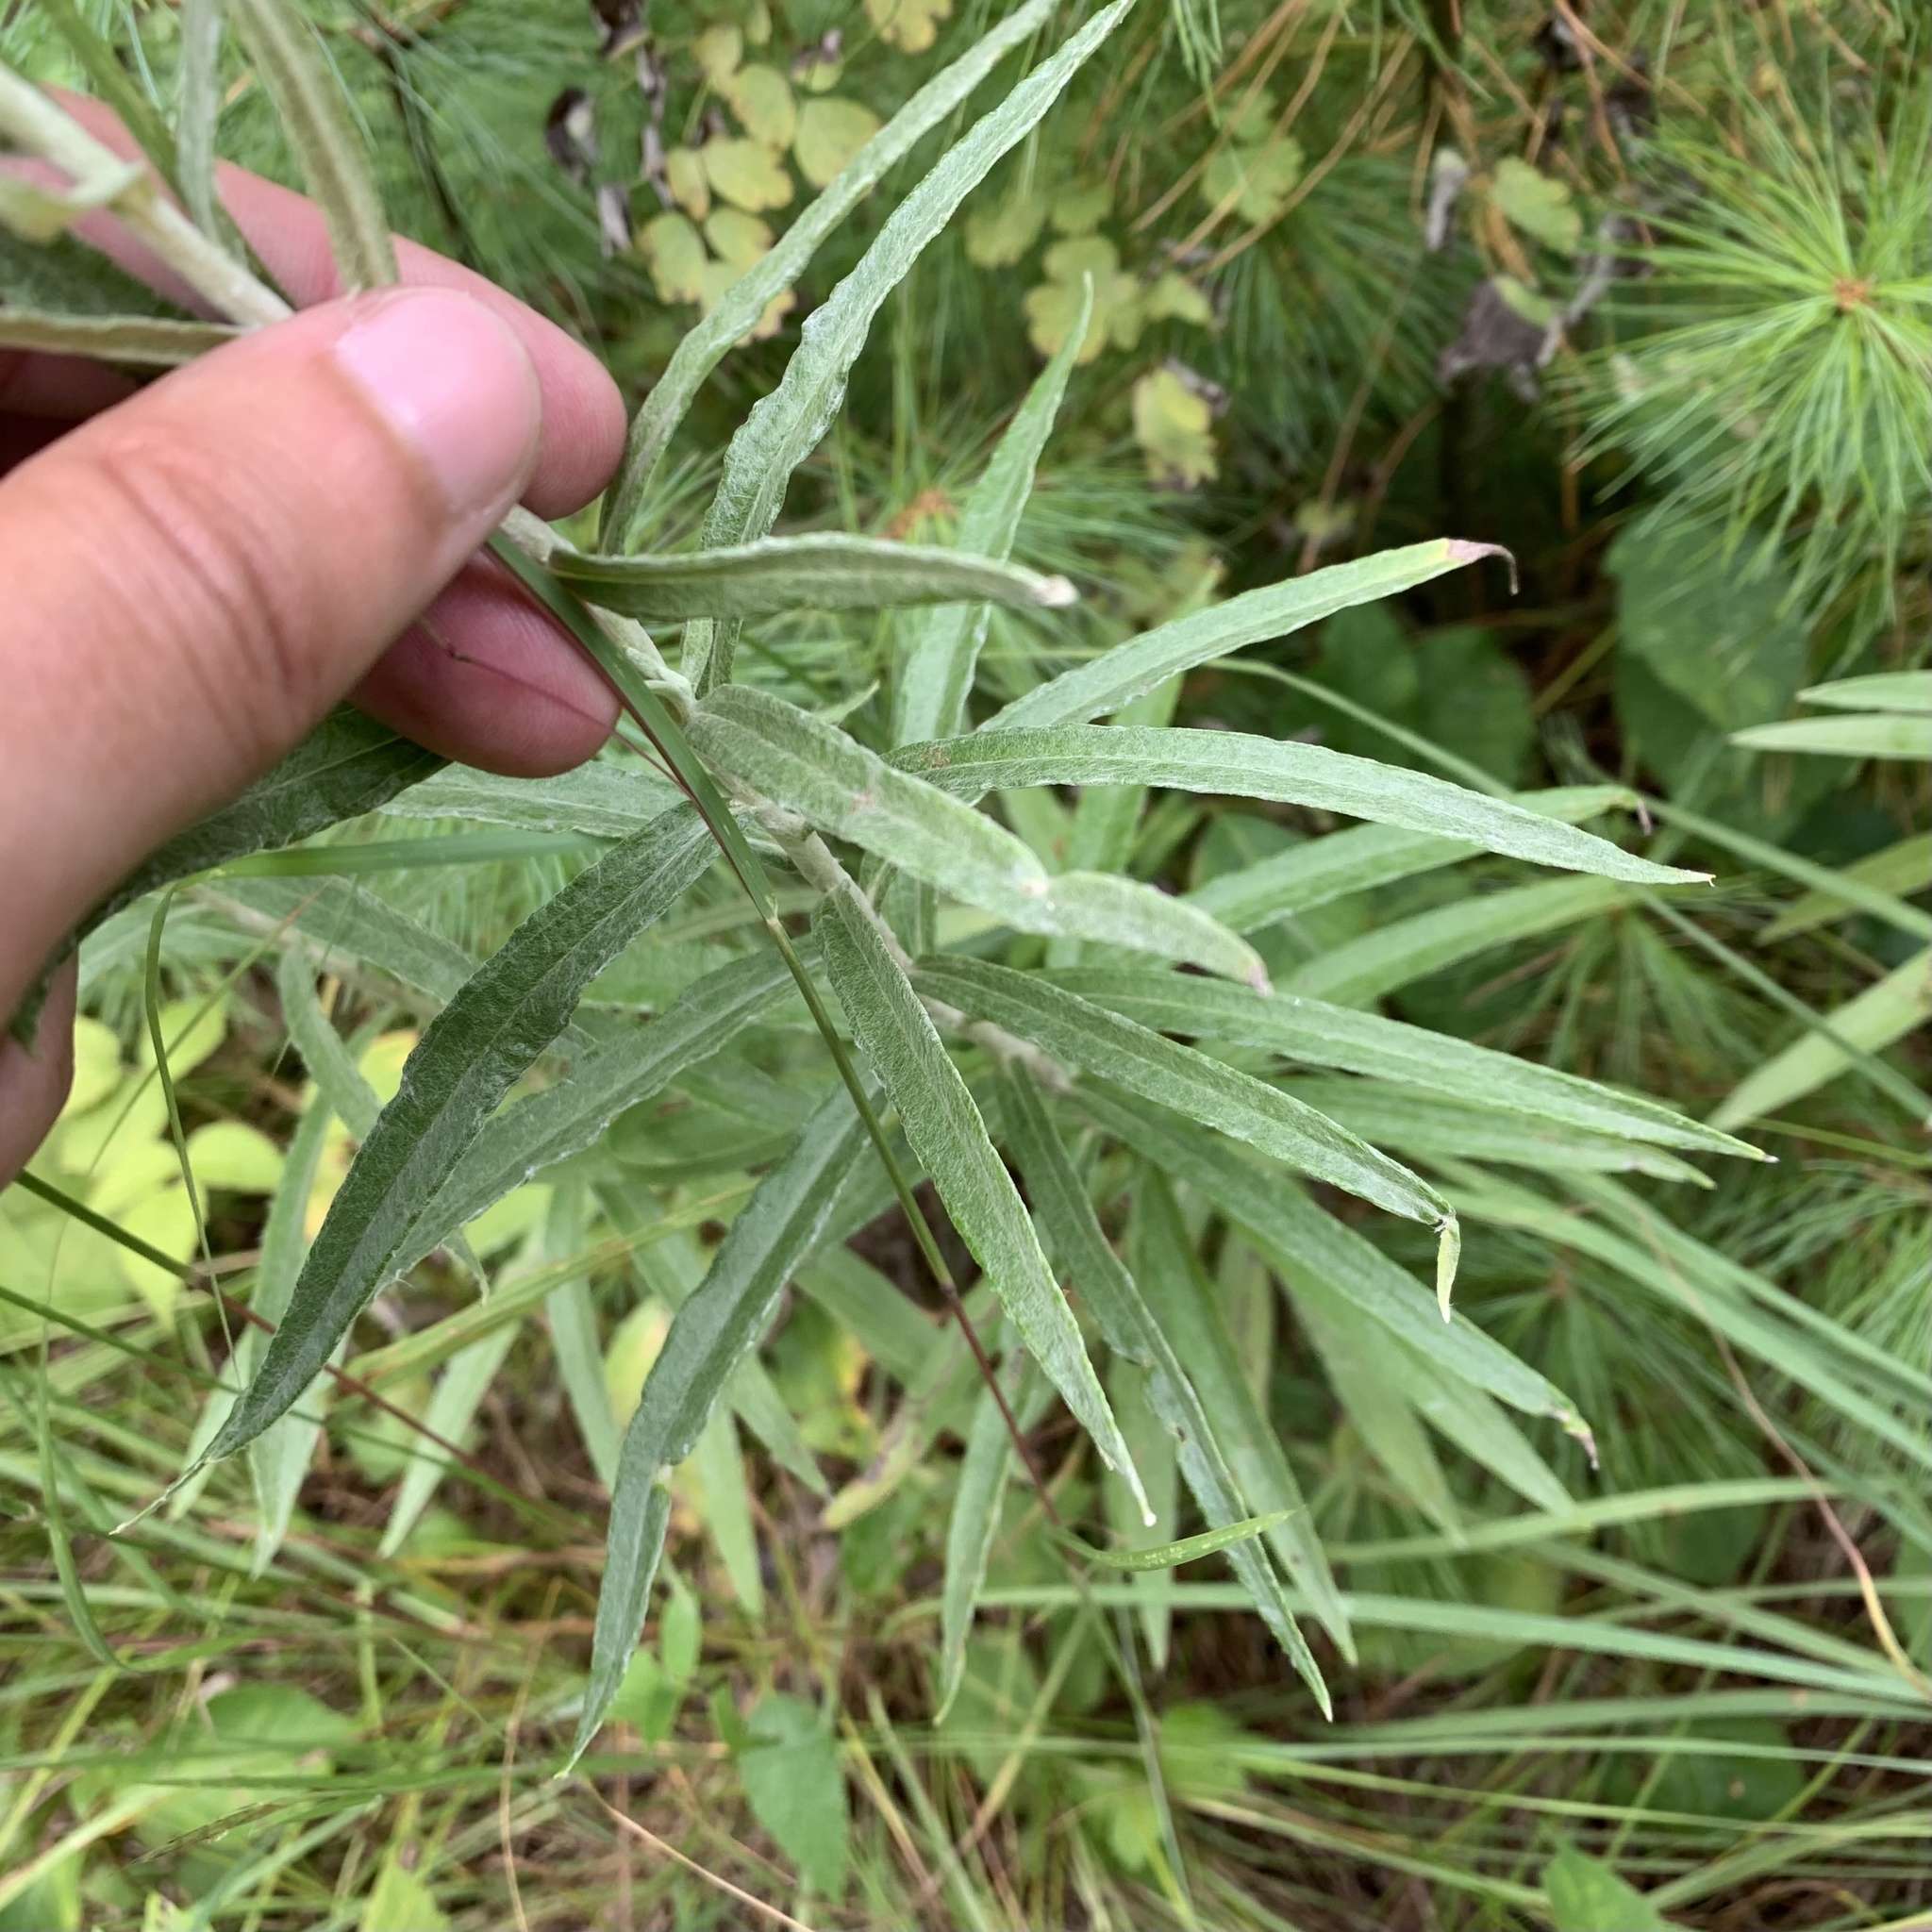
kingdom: Plantae
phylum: Tracheophyta
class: Magnoliopsida
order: Asterales
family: Asteraceae
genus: Anaphalis
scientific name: Anaphalis margaritacea
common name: Pearly everlasting
